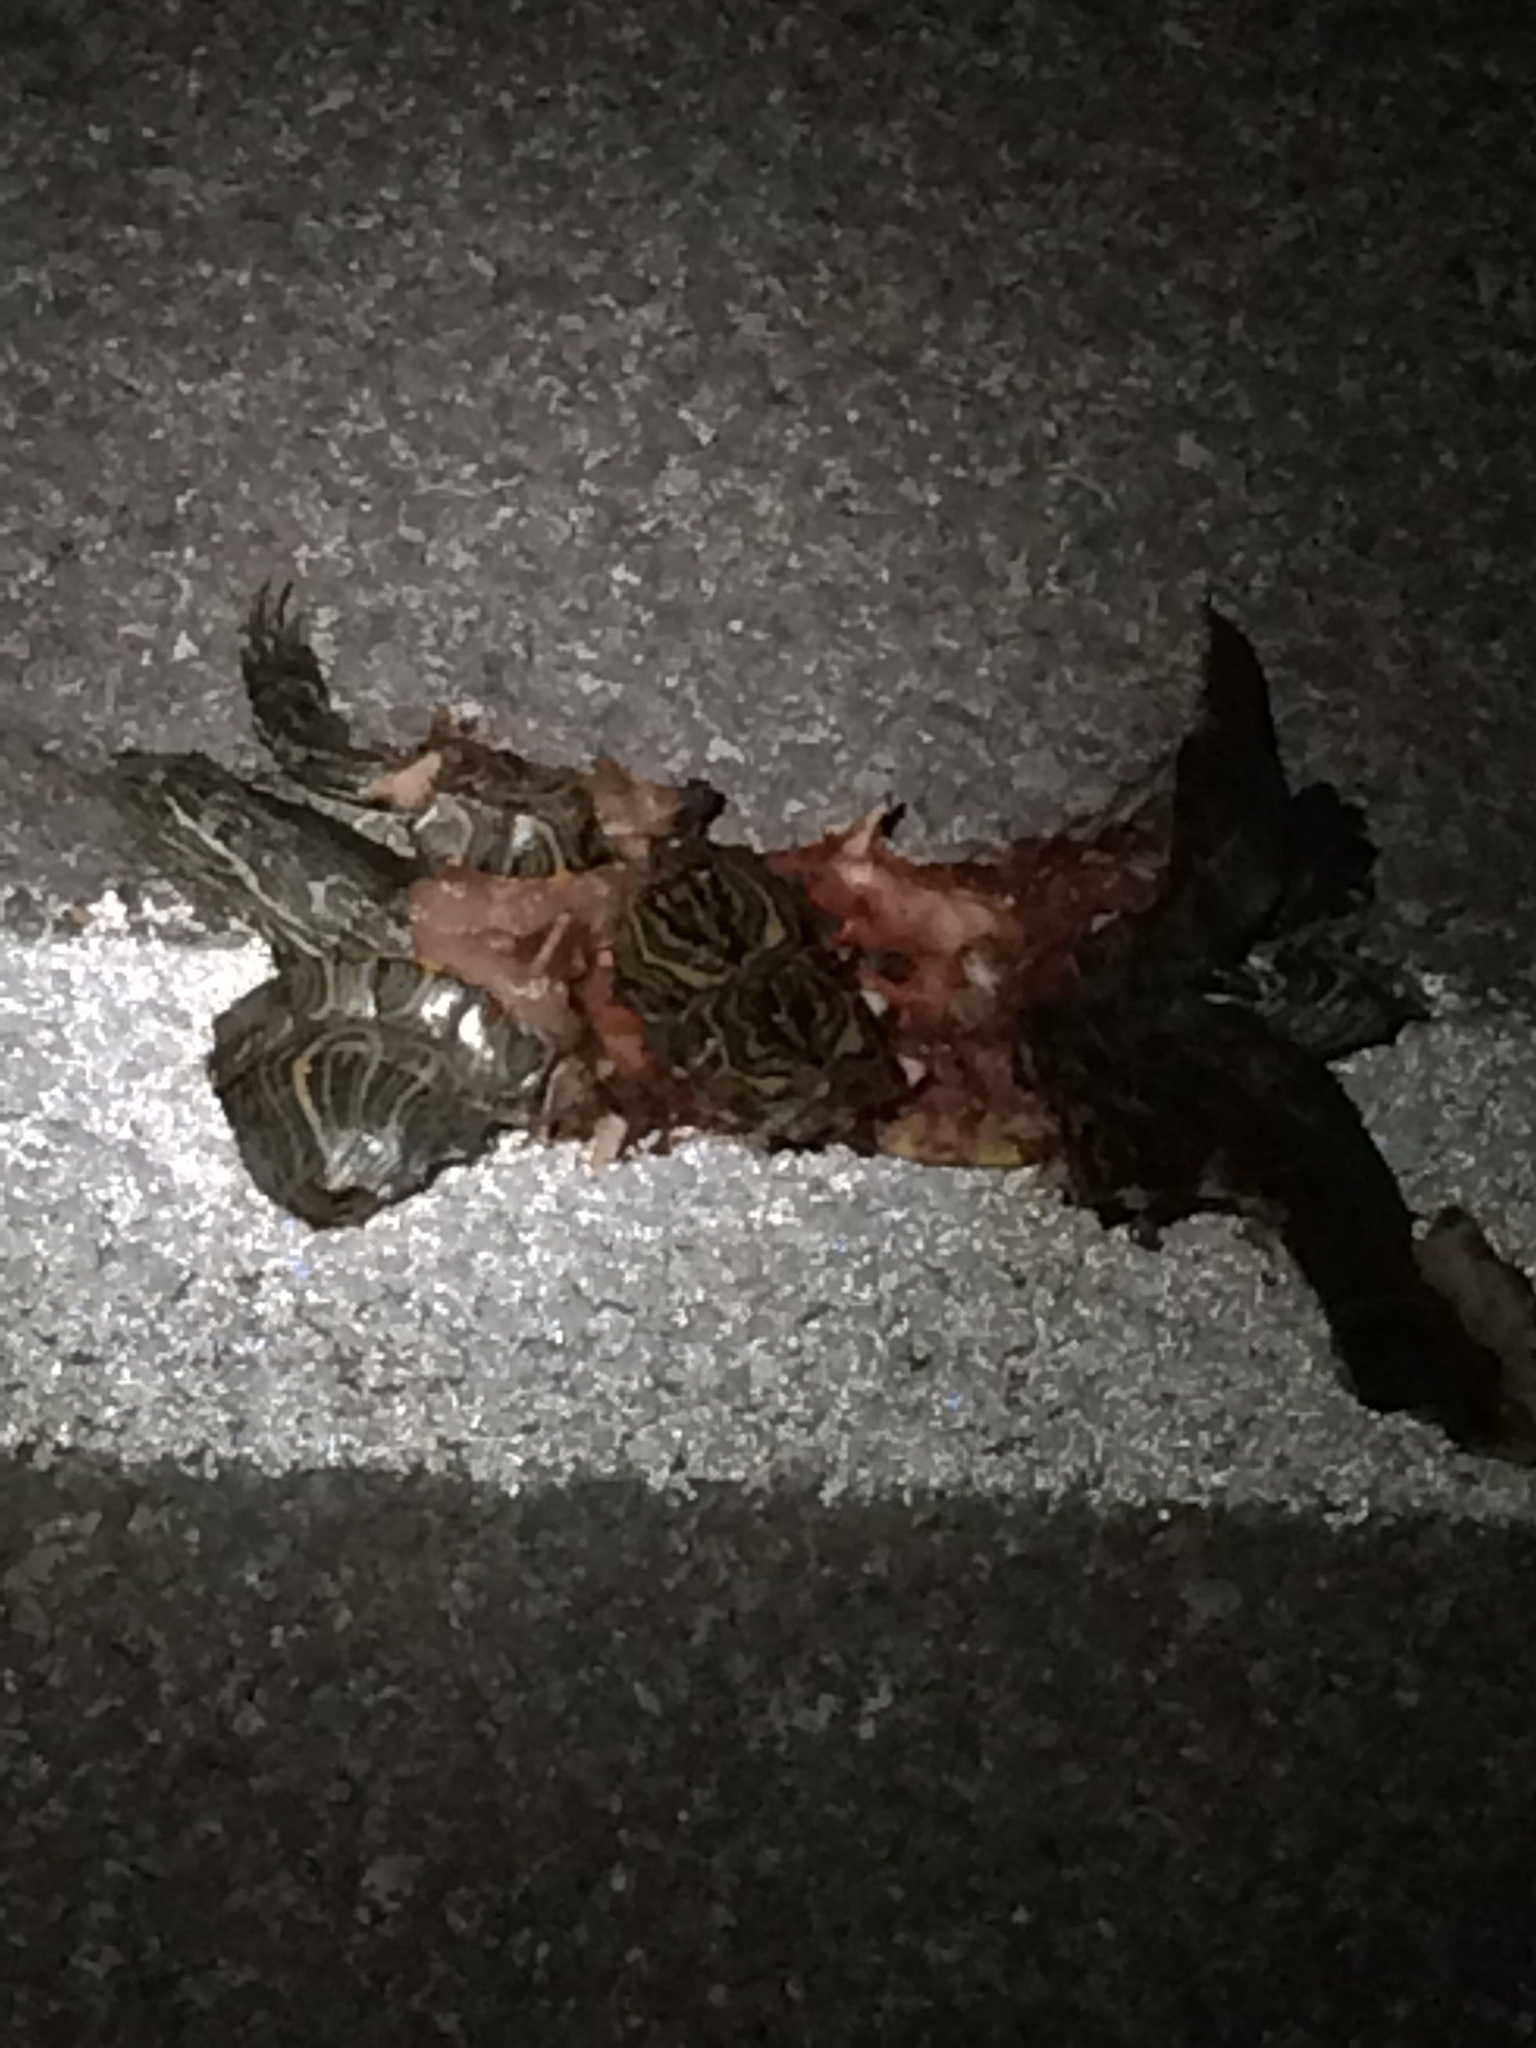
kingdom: Animalia
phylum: Chordata
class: Testudines
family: Emydidae
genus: Trachemys
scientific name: Trachemys scripta
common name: Slider
